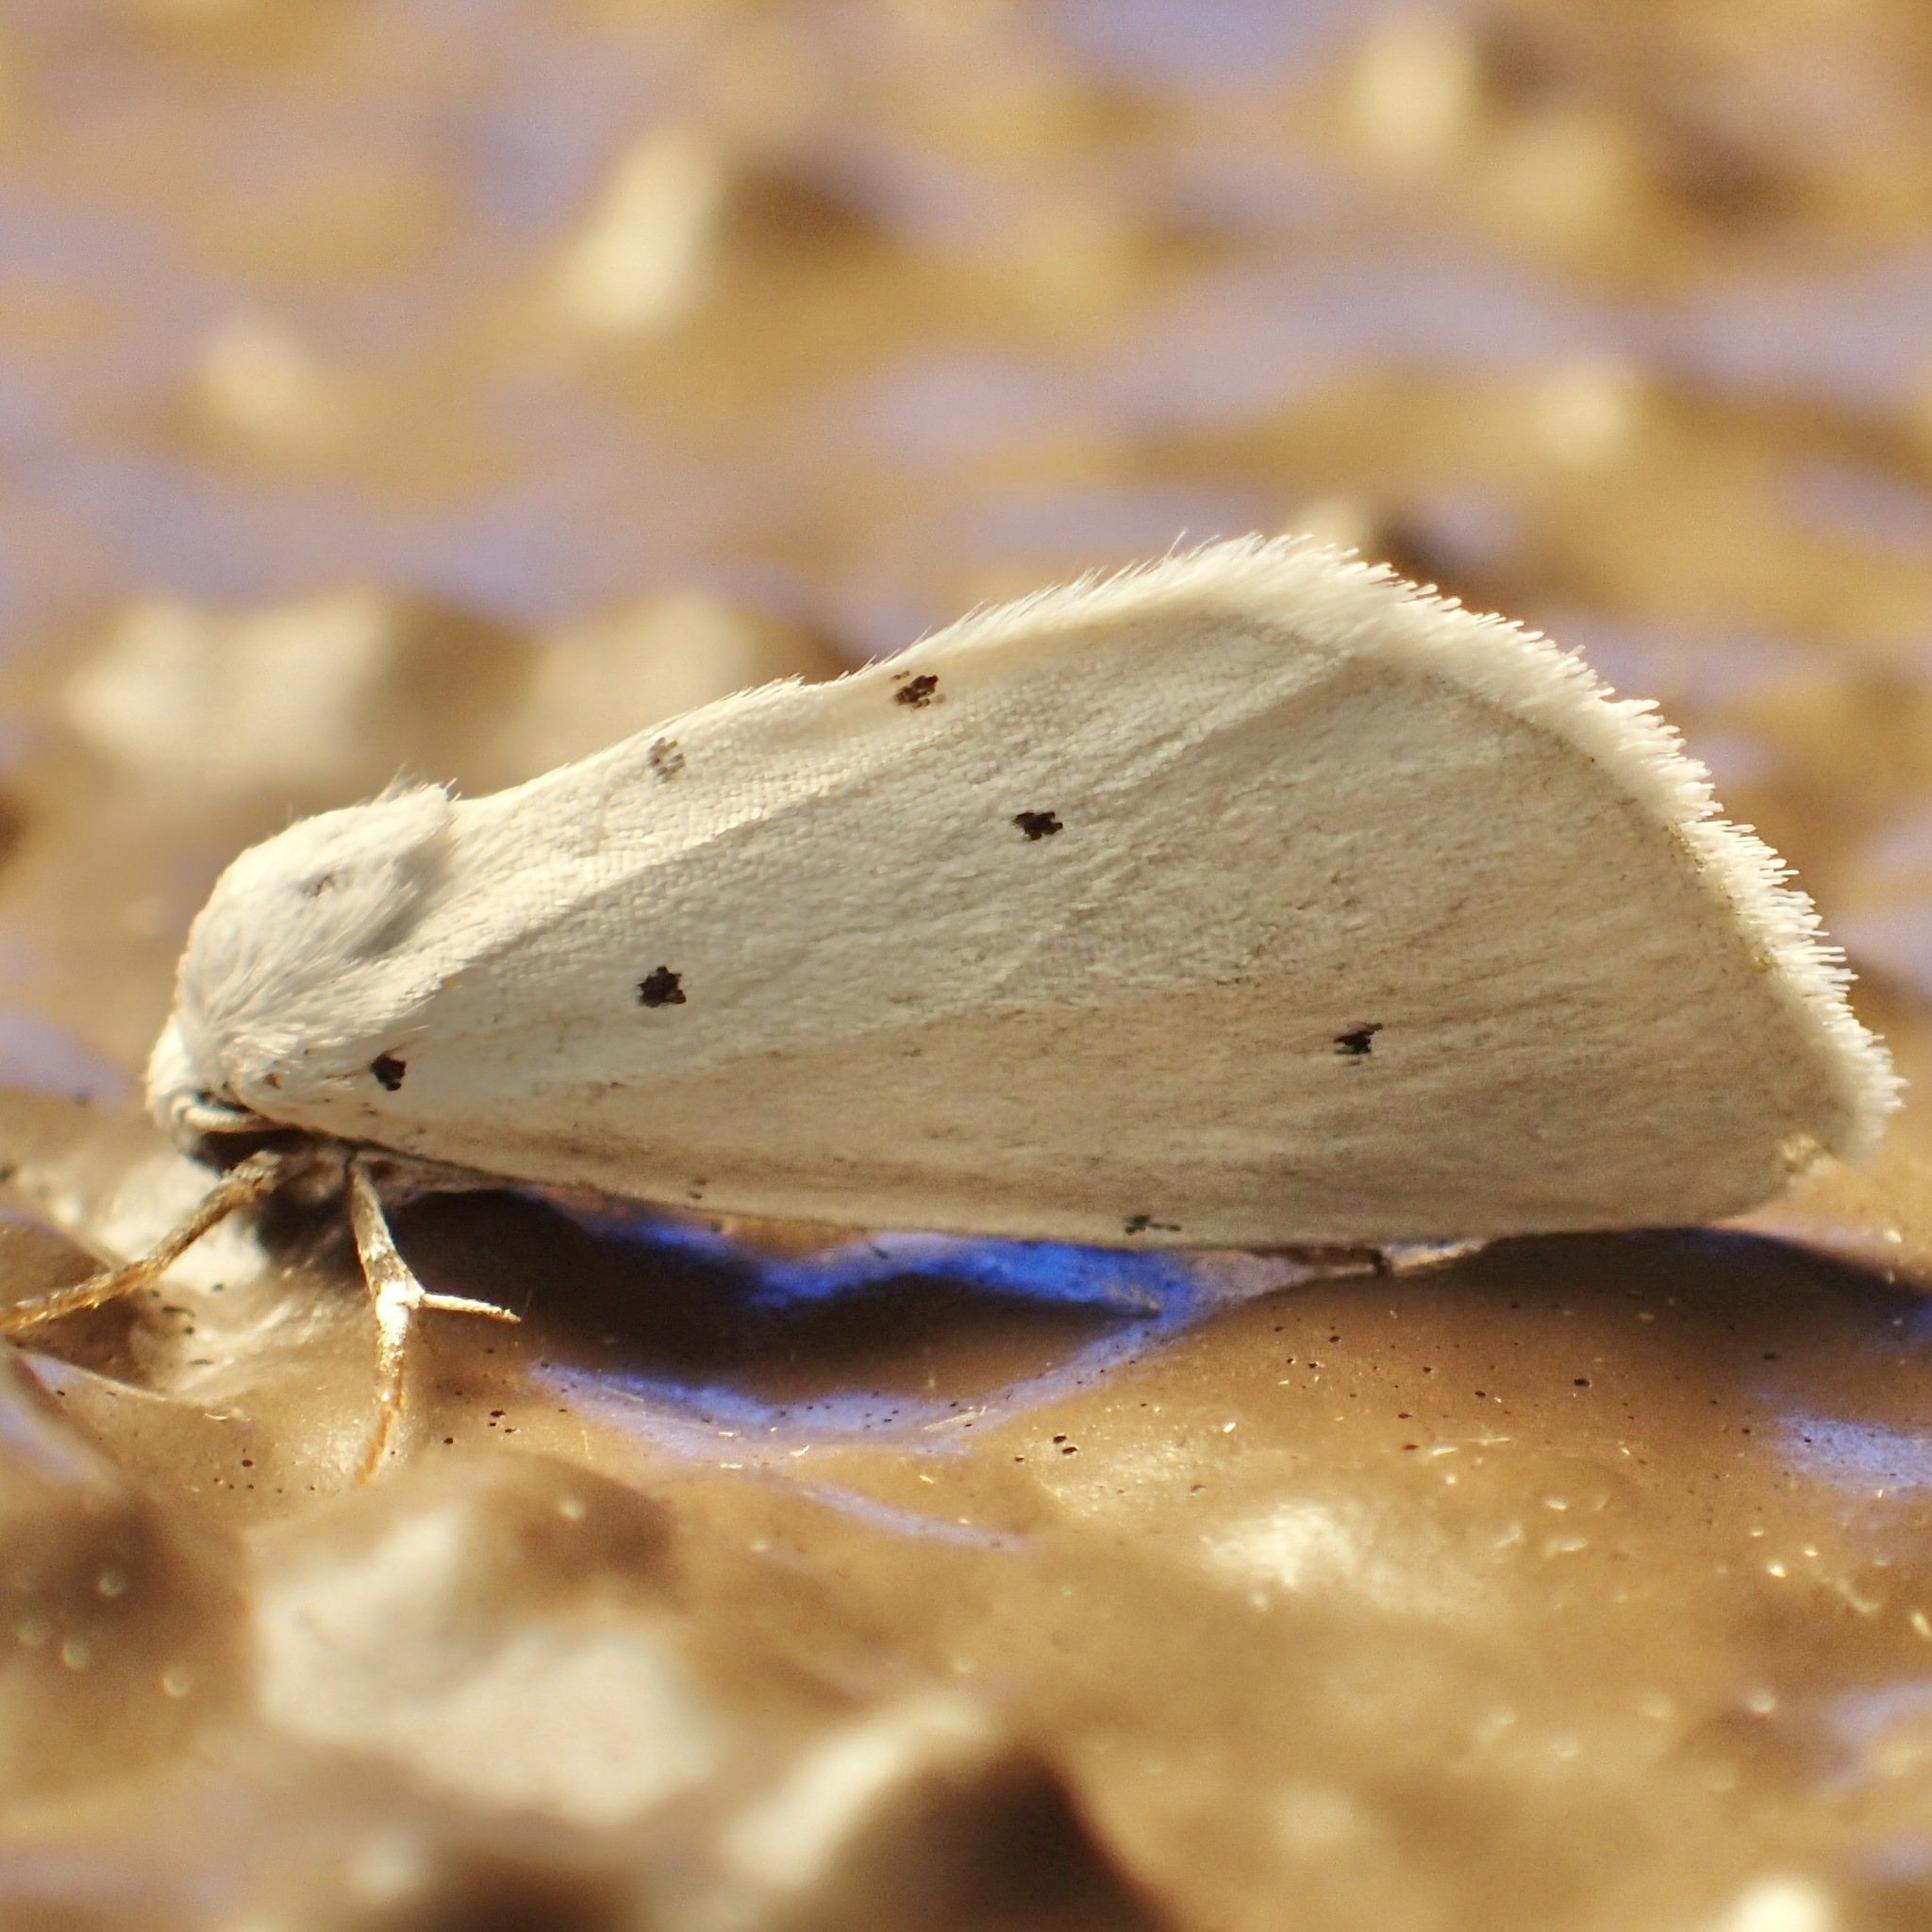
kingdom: Animalia
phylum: Arthropoda
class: Insecta
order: Lepidoptera
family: Noctuidae
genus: Grotella
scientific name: Grotella blanca
